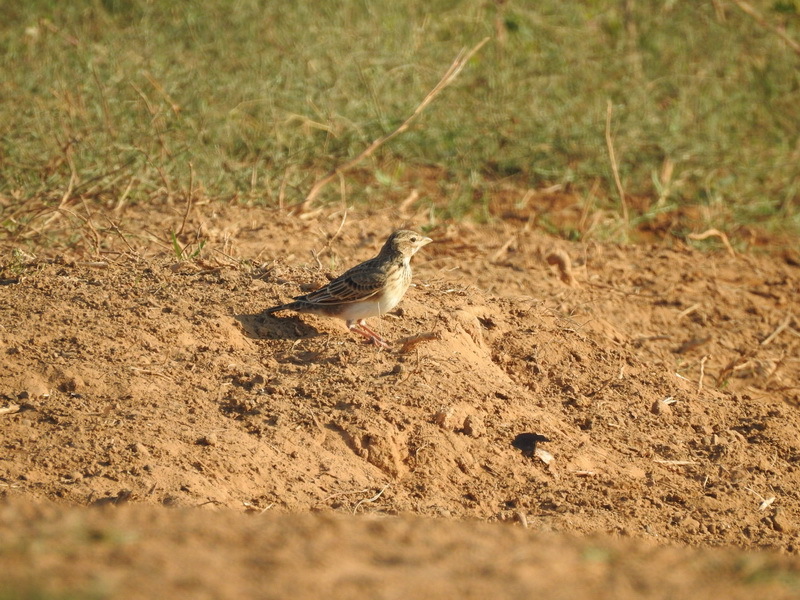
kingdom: Animalia
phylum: Chordata
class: Aves
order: Passeriformes
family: Alaudidae
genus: Melanocorypha
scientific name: Melanocorypha calandra
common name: Calandra lark
